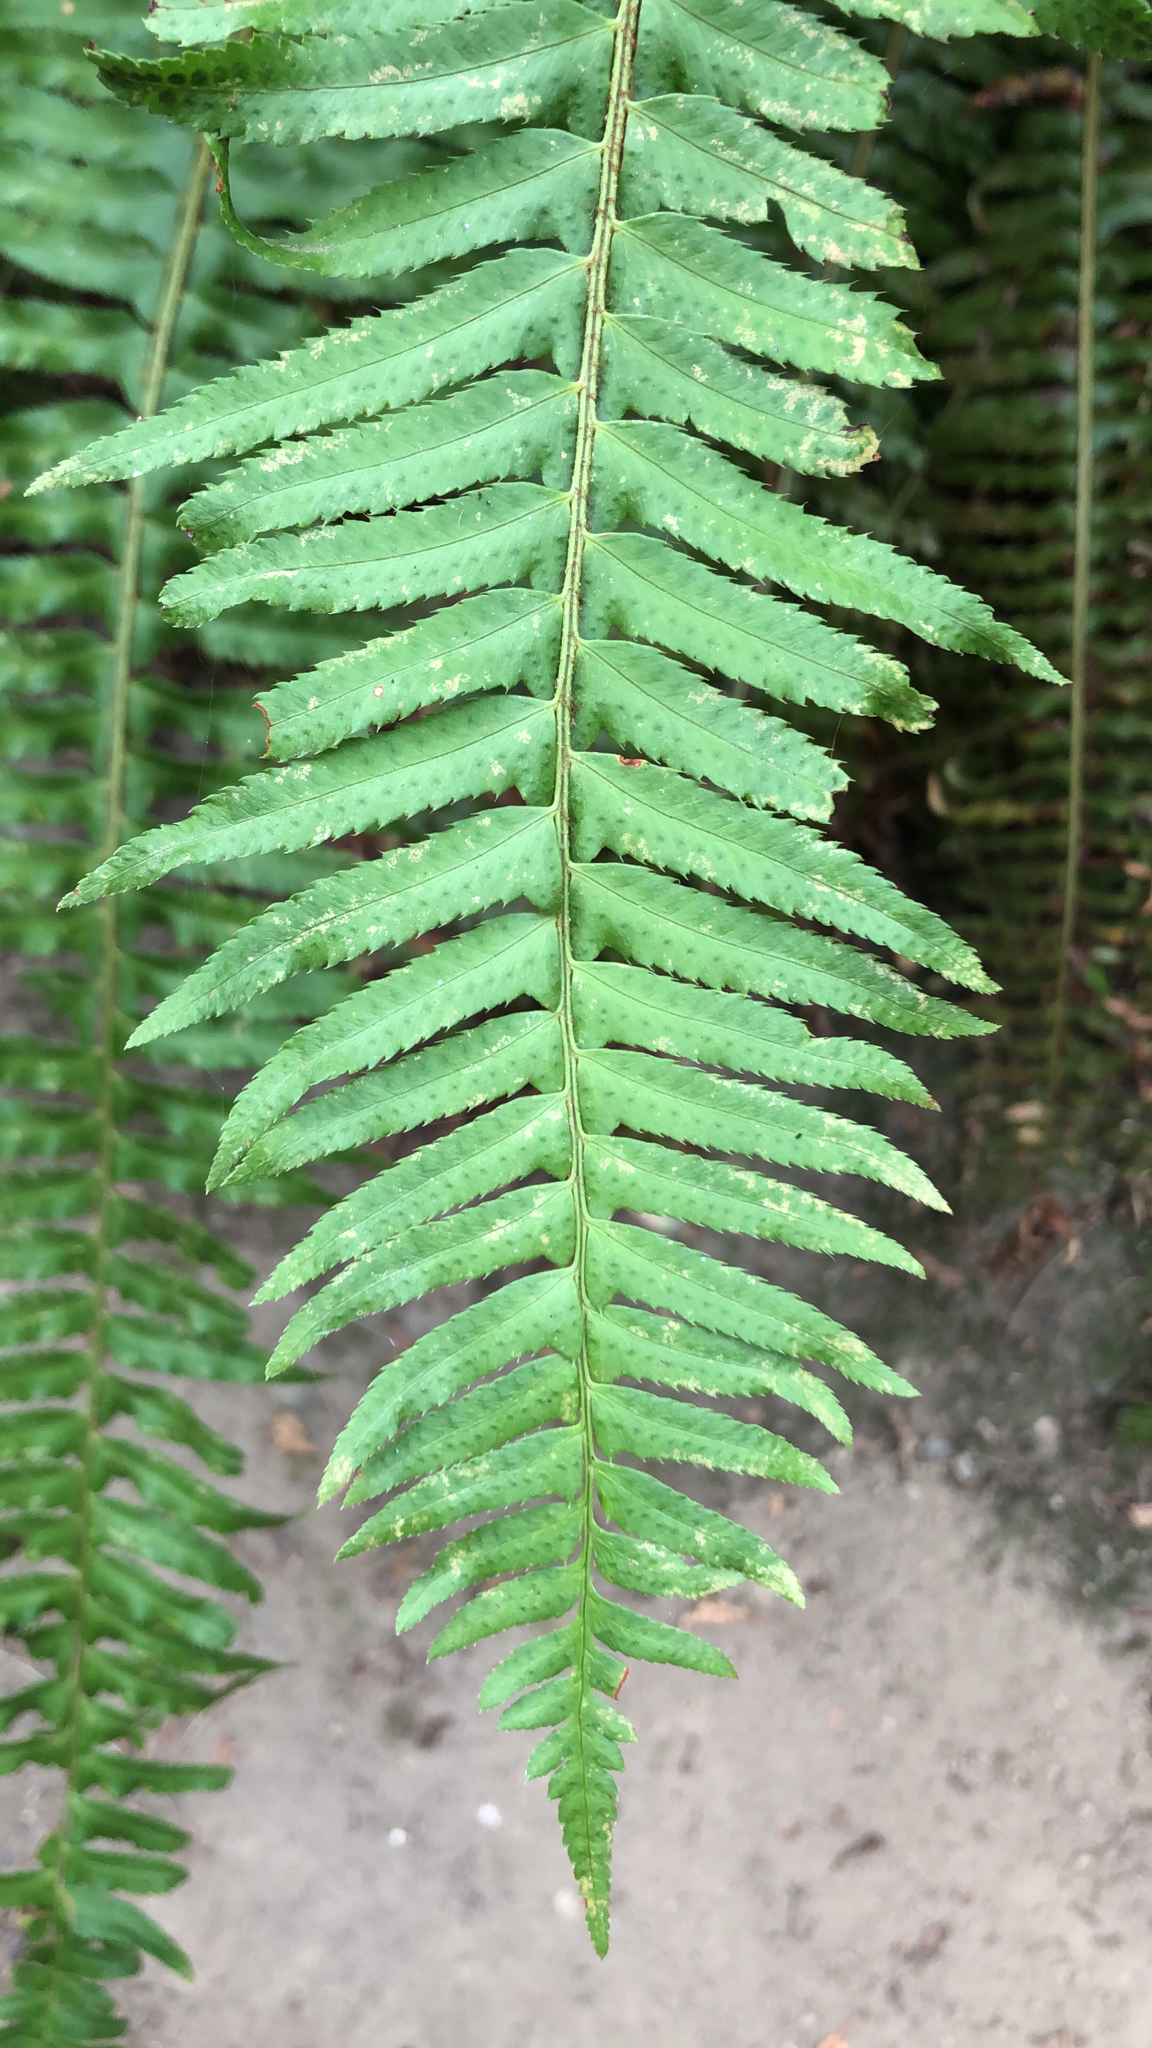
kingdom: Plantae
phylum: Tracheophyta
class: Polypodiopsida
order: Polypodiales
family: Dryopteridaceae
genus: Polystichum
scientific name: Polystichum munitum
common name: Western sword-fern
